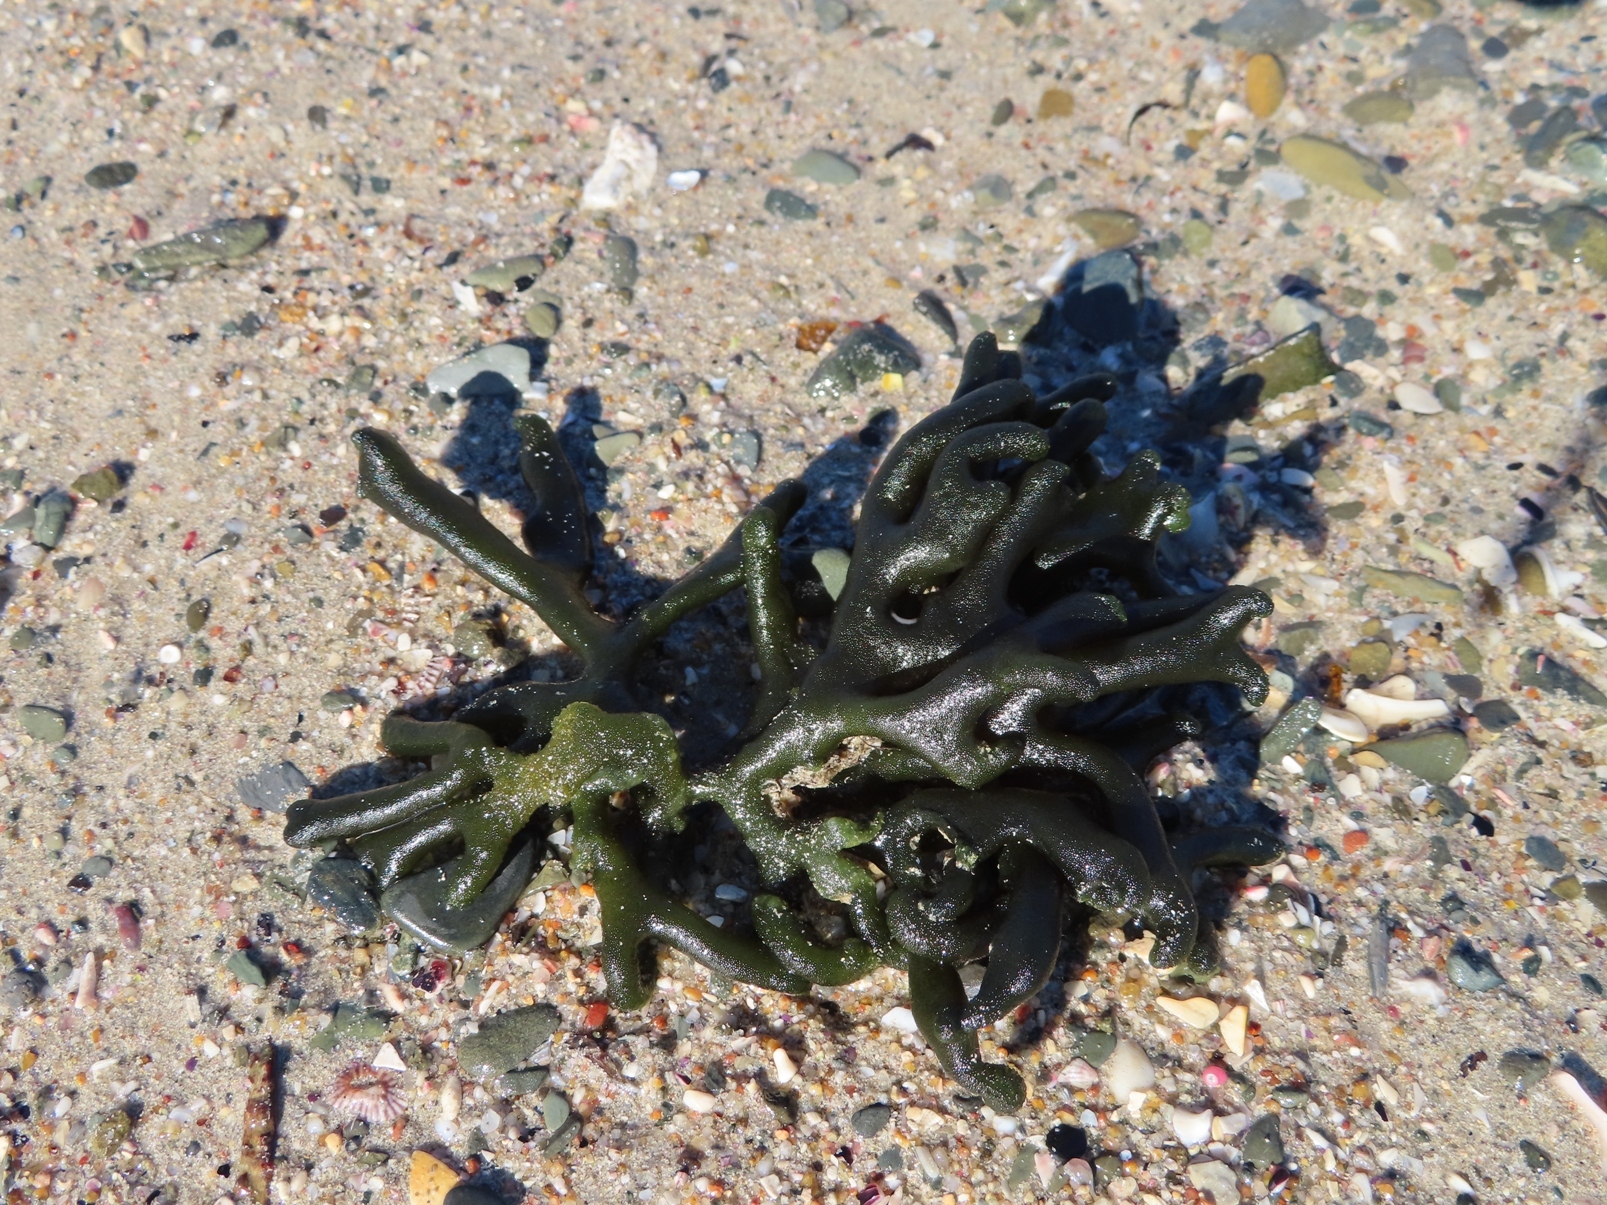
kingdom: Plantae
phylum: Chlorophyta
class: Ulvophyceae
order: Bryopsidales
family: Codiaceae
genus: Codium
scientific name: Codium fragile
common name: Dead man's fingers
